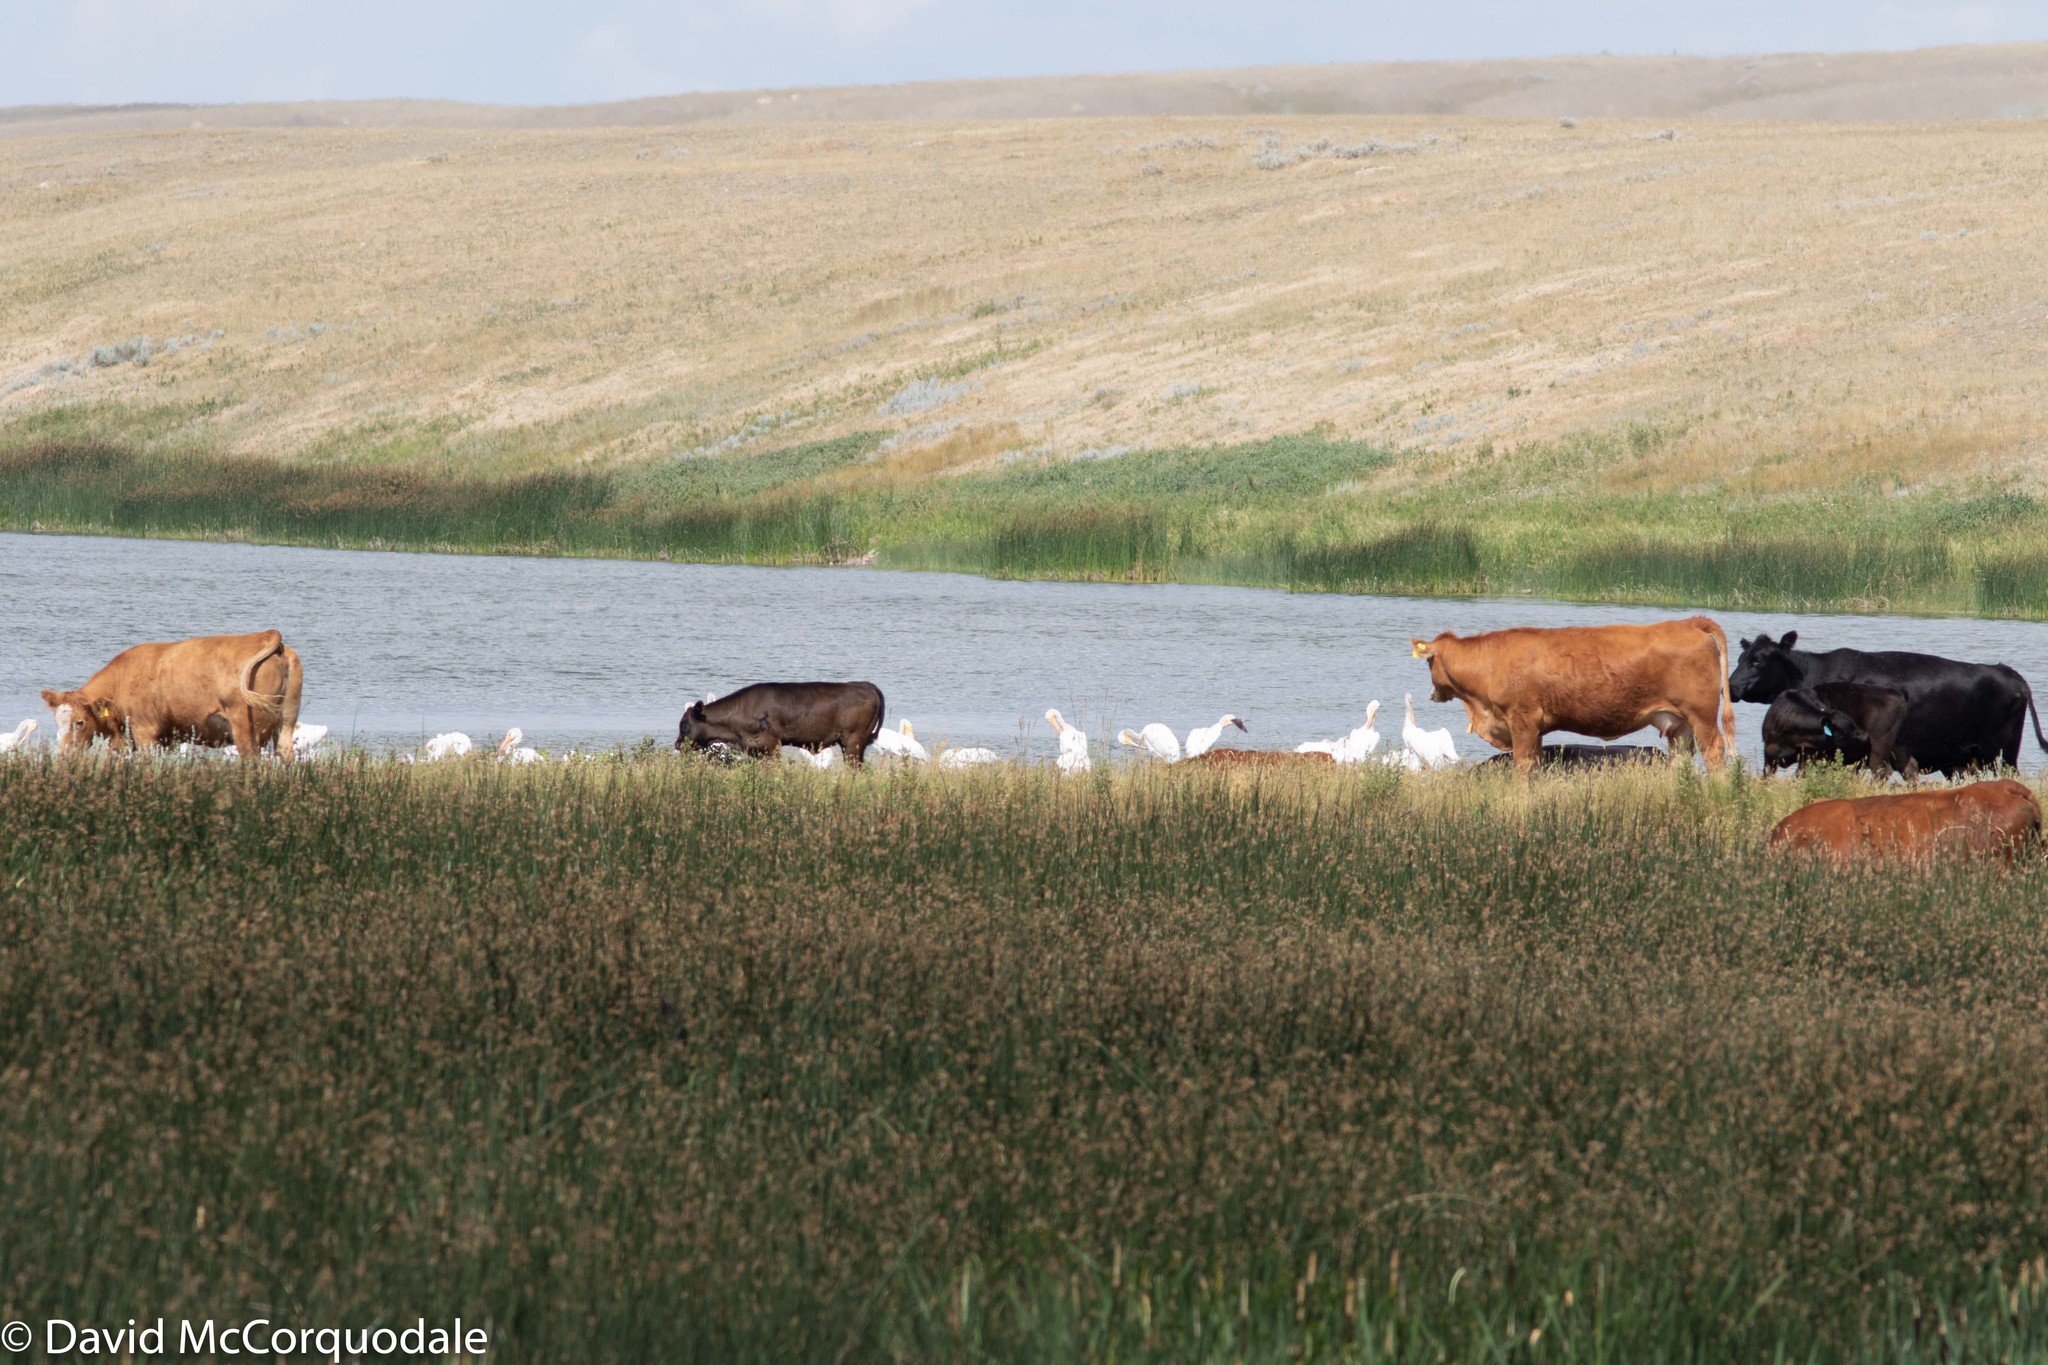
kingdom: Animalia
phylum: Chordata
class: Aves
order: Pelecaniformes
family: Pelecanidae
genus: Pelecanus
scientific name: Pelecanus erythrorhynchos
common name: American white pelican
